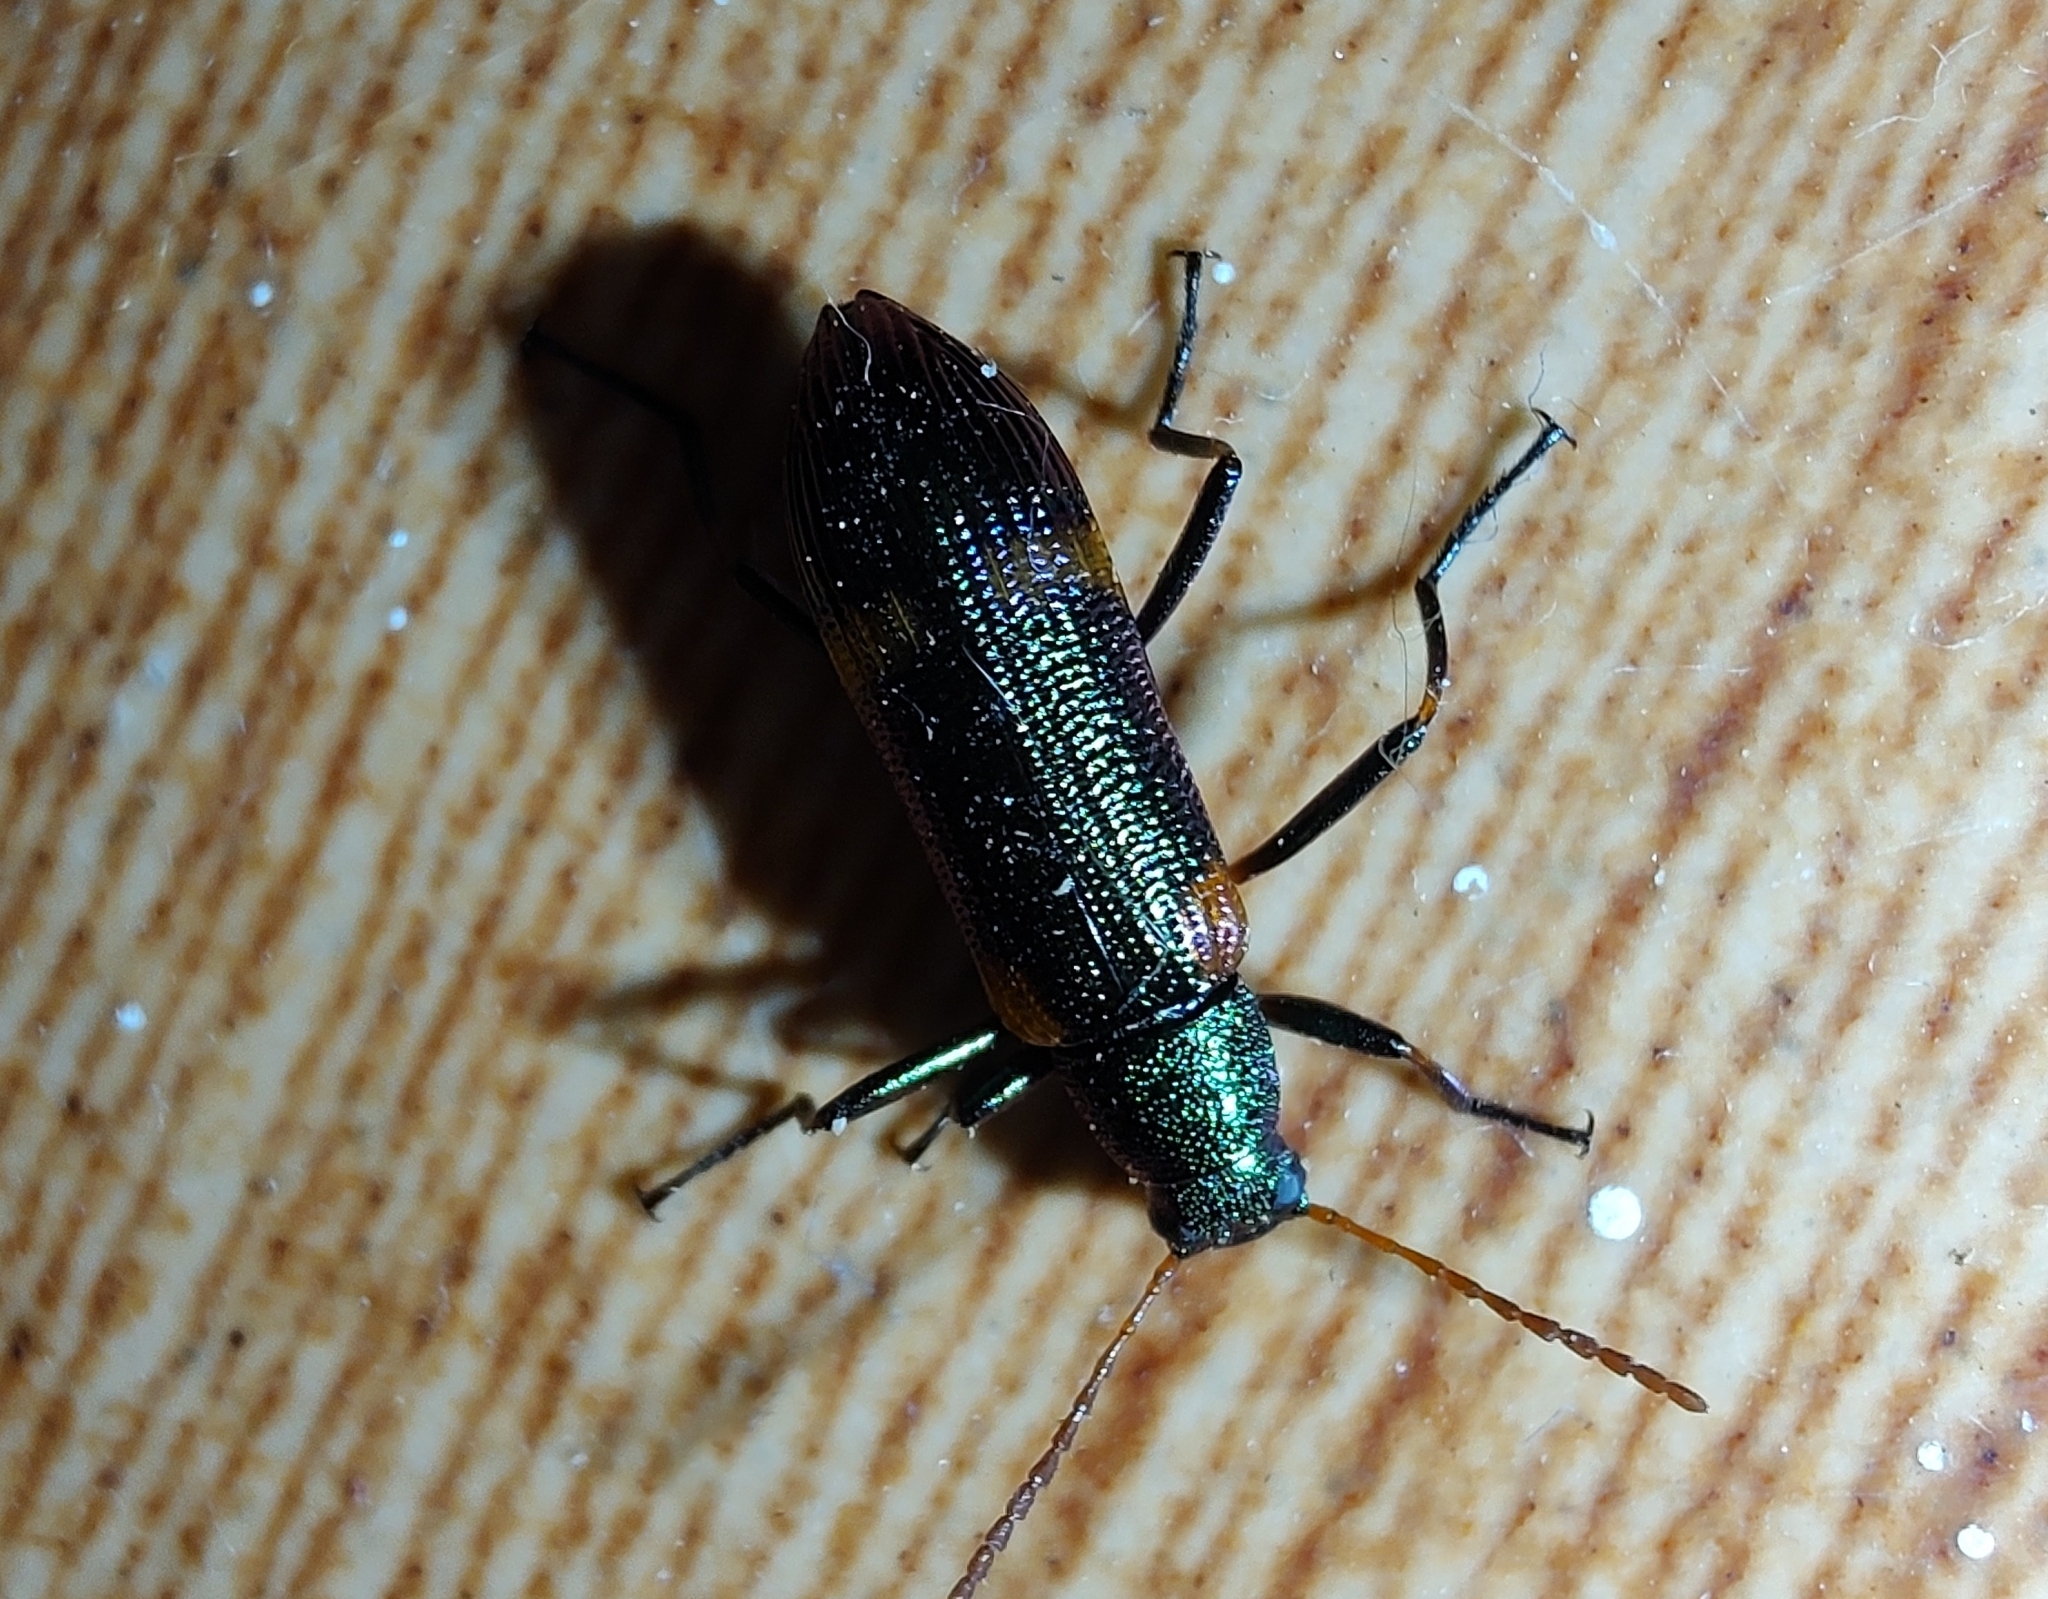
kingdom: Animalia
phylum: Arthropoda
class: Insecta
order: Coleoptera
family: Tenebrionidae
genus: Strongylium
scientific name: Strongylium
